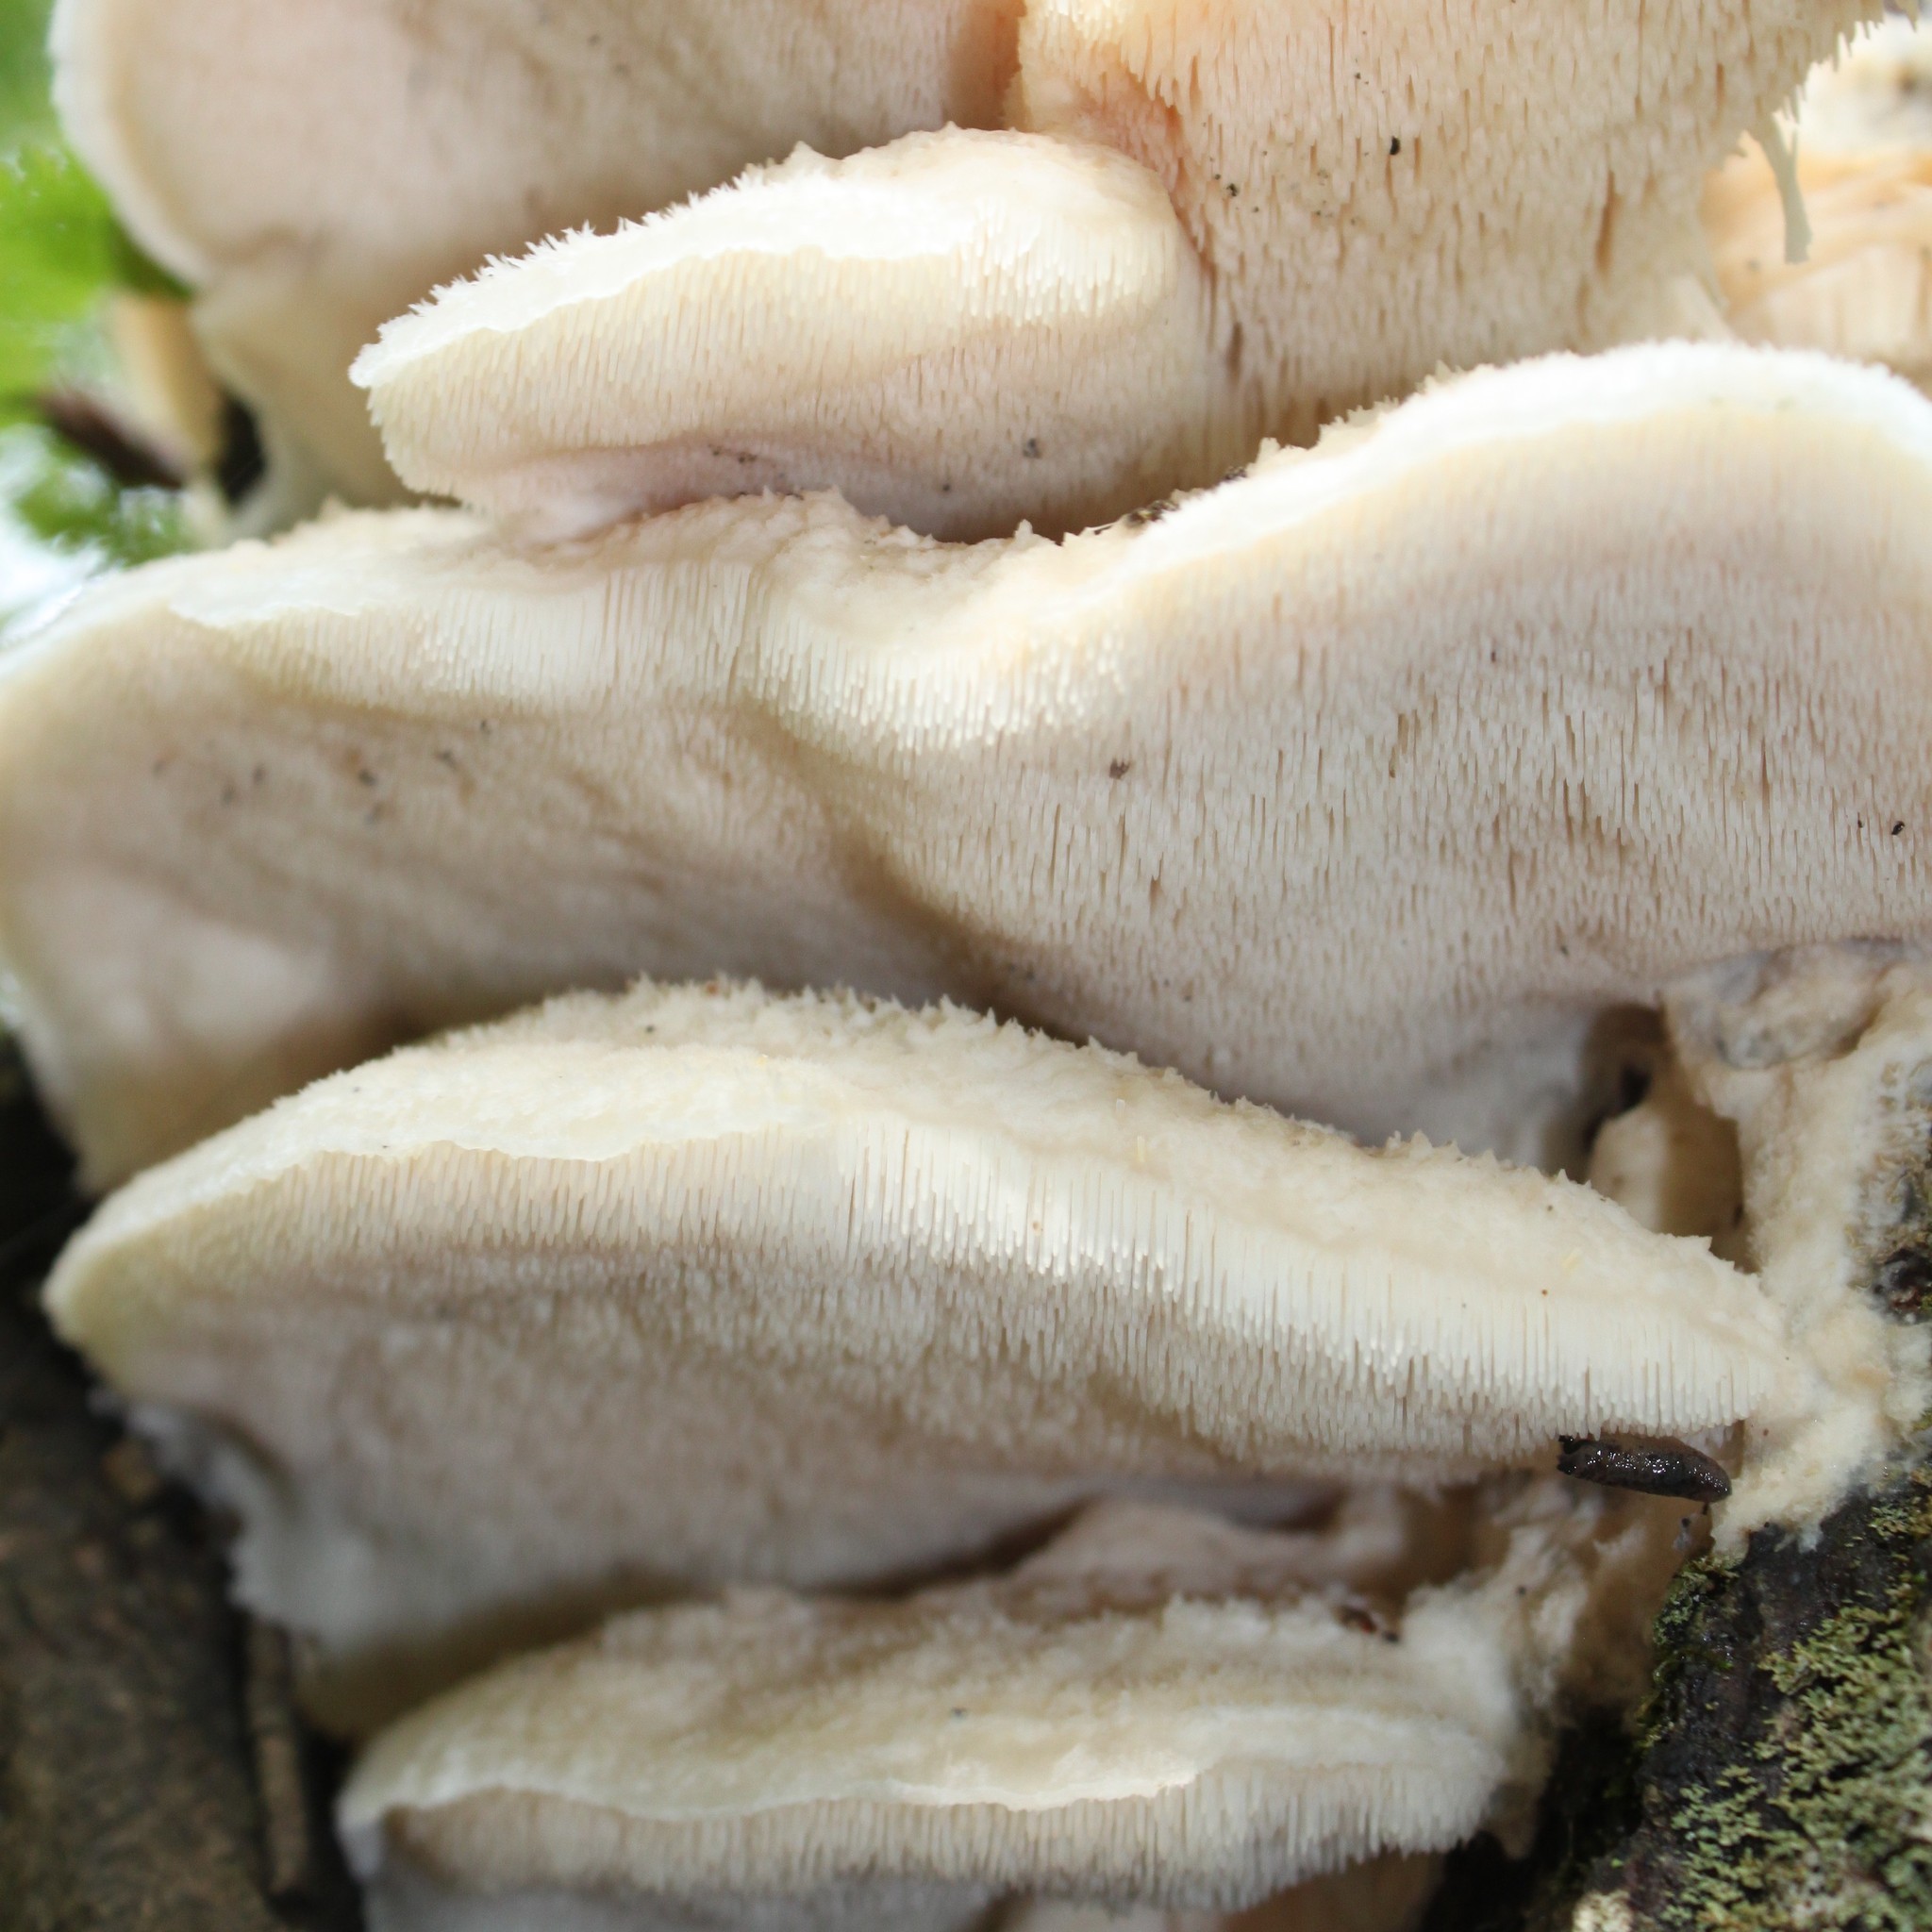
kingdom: Fungi
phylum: Basidiomycota
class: Agaricomycetes
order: Polyporales
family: Meruliaceae
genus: Climacodon
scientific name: Climacodon septentrionalis
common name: Northern tooth
